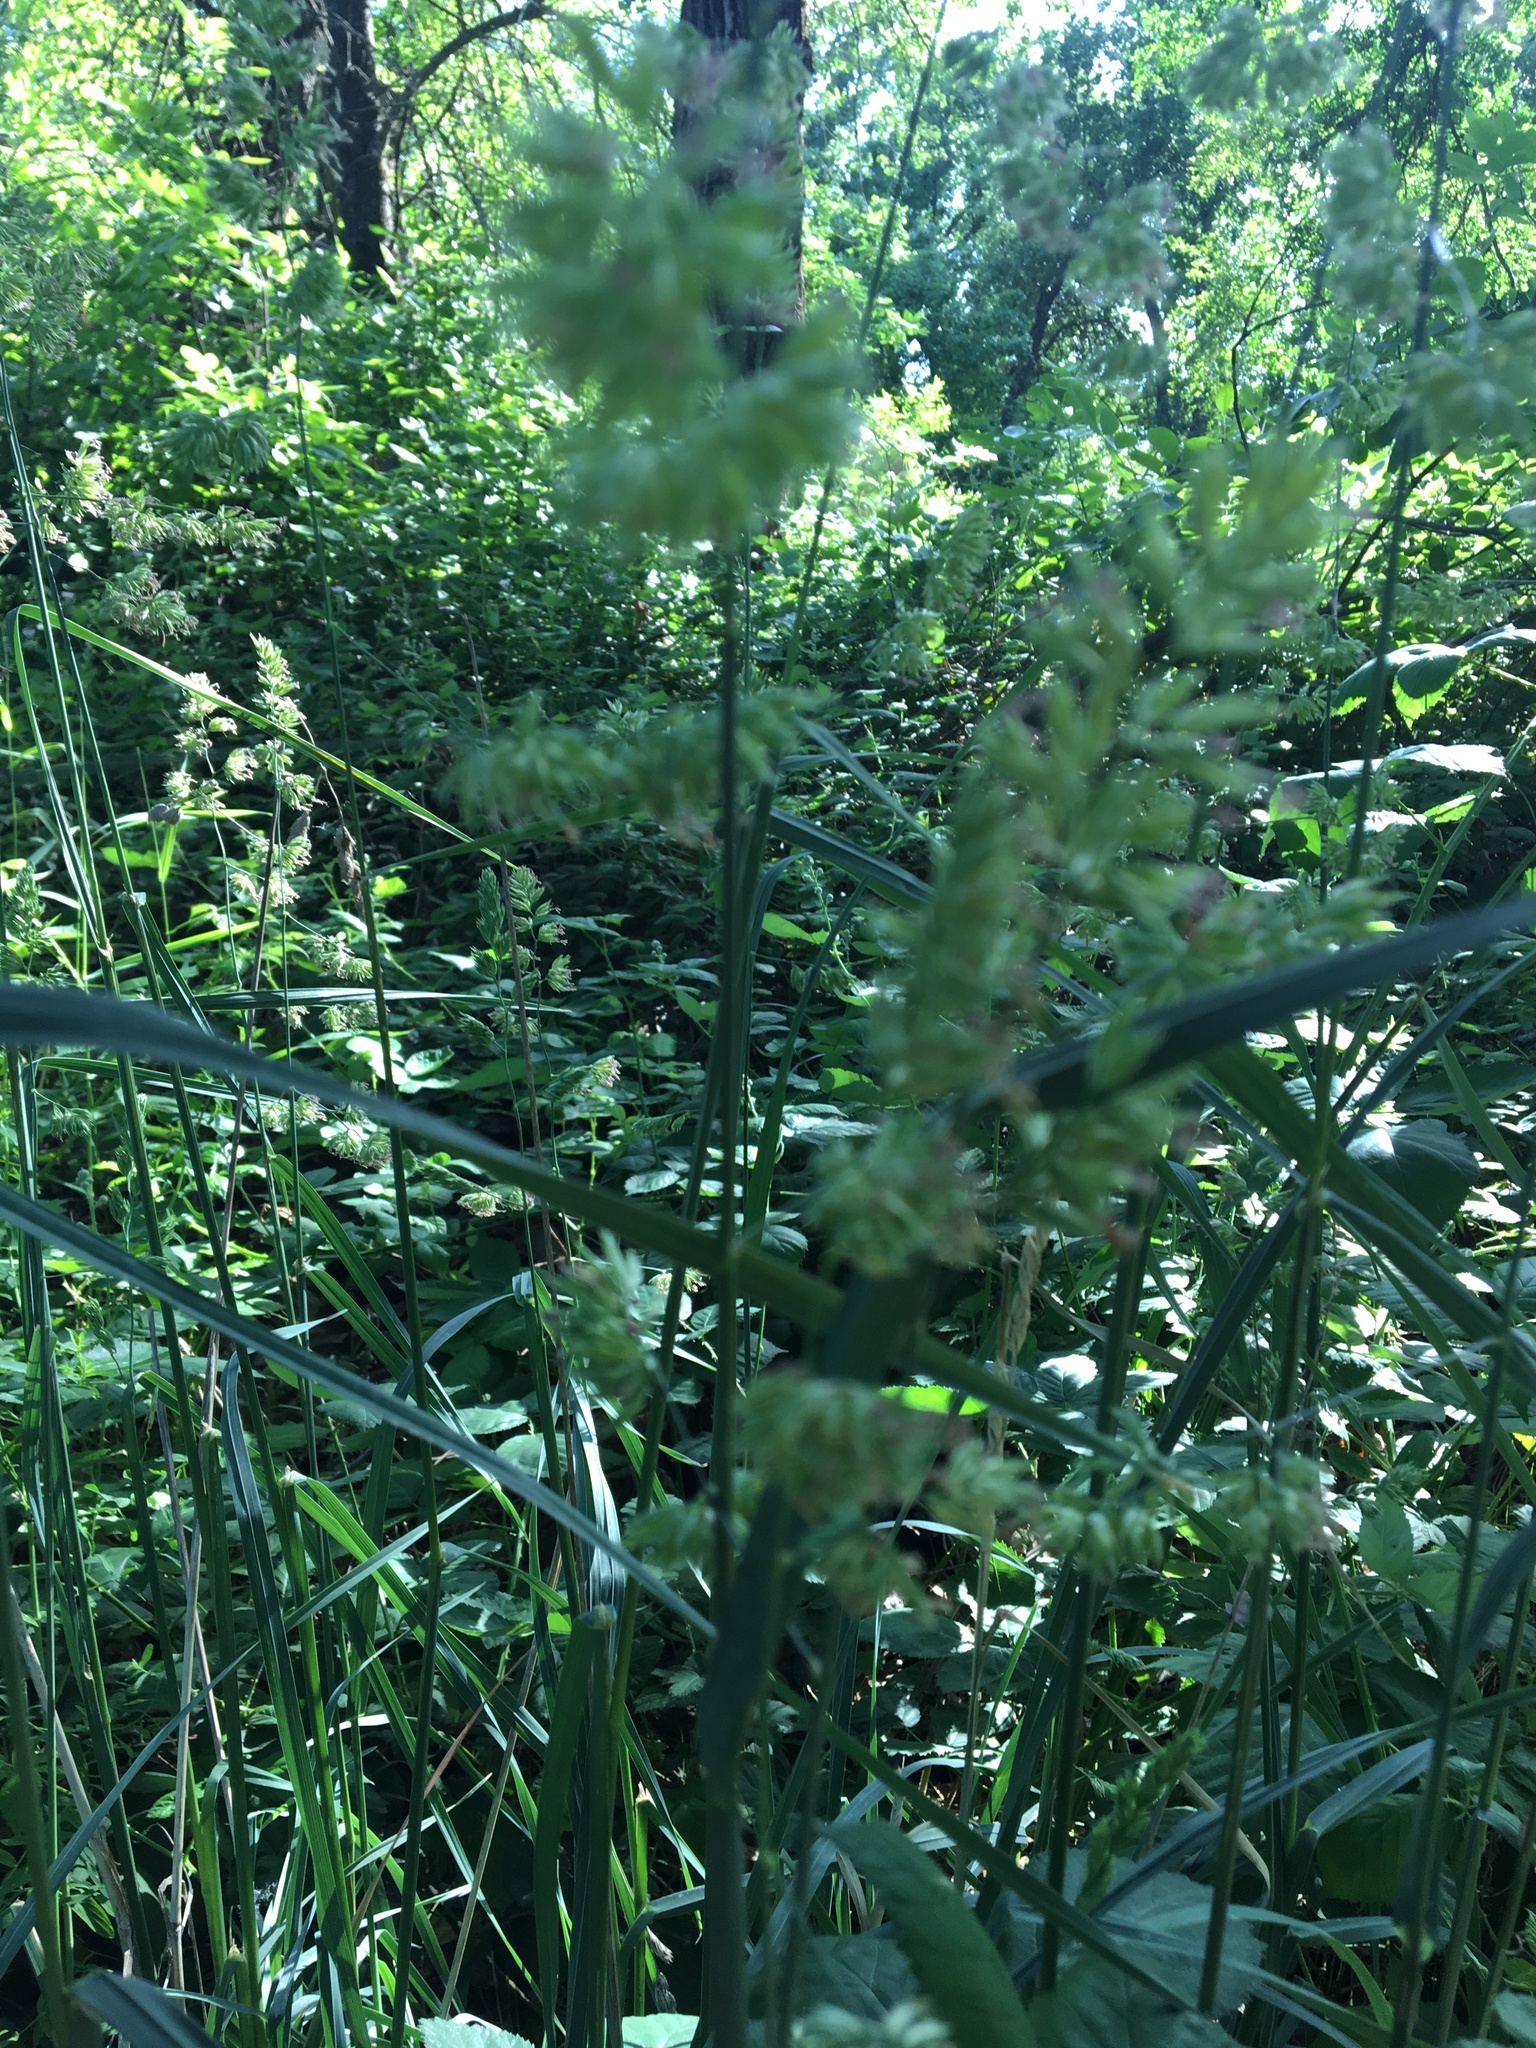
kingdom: Plantae
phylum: Tracheophyta
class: Liliopsida
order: Poales
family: Poaceae
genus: Dactylis
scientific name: Dactylis glomerata
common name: Orchardgrass
